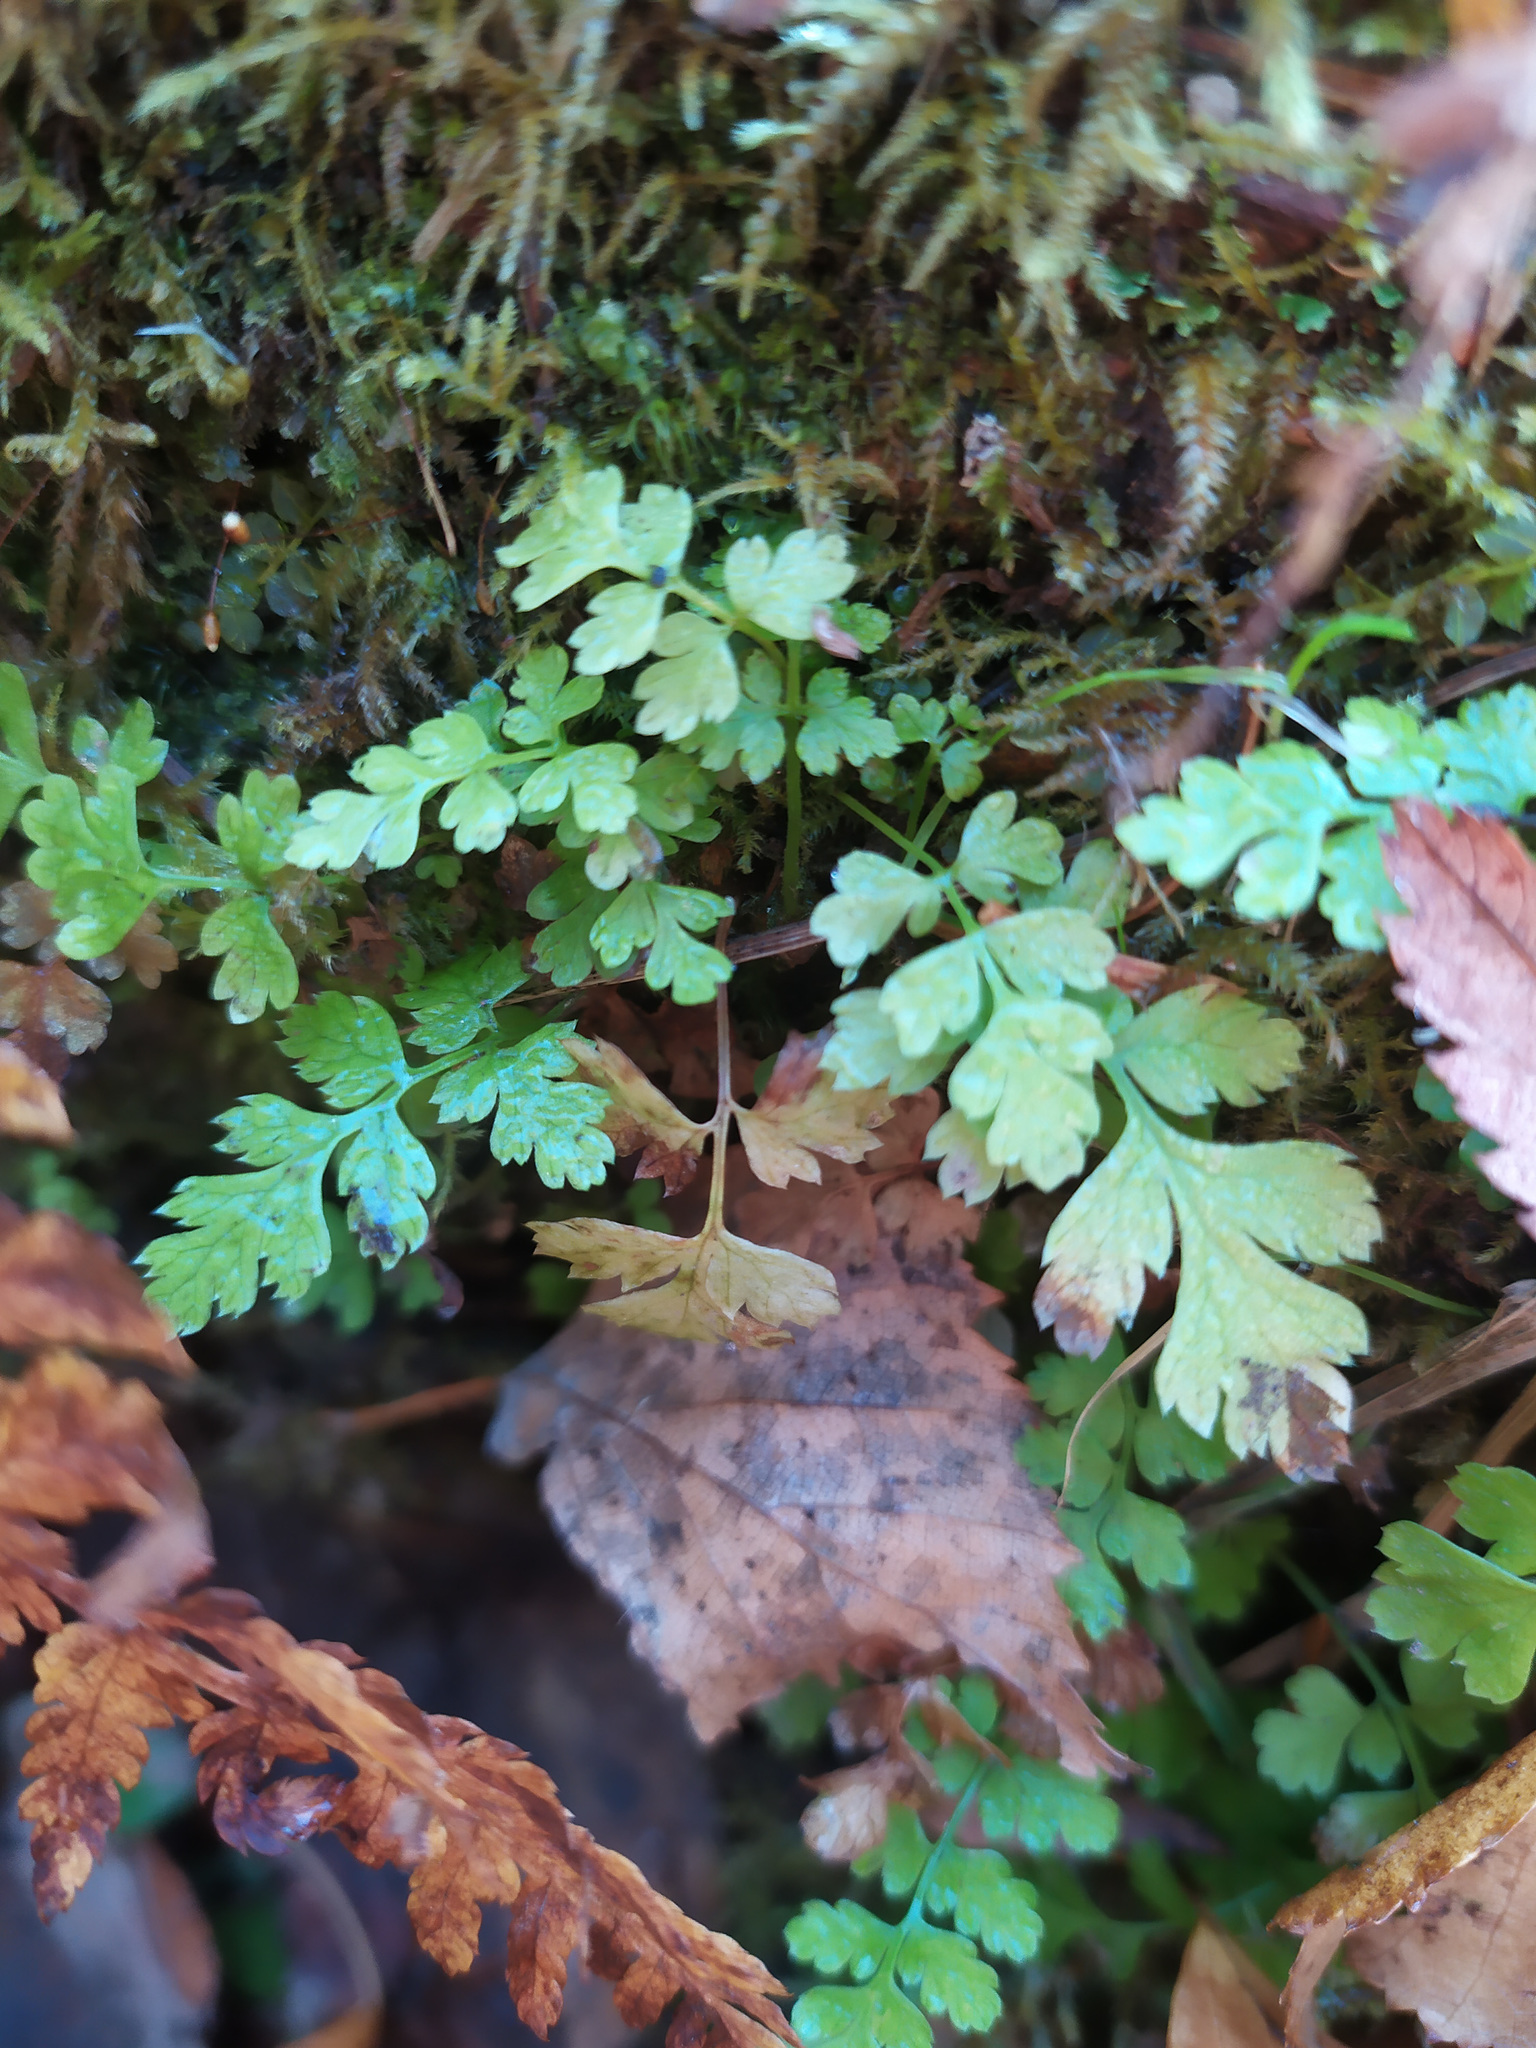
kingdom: Plantae
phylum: Tracheophyta
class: Polypodiopsida
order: Polypodiales
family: Cystopteridaceae
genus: Cystopteris
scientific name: Cystopteris fragilis
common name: Brittle bladder fern
